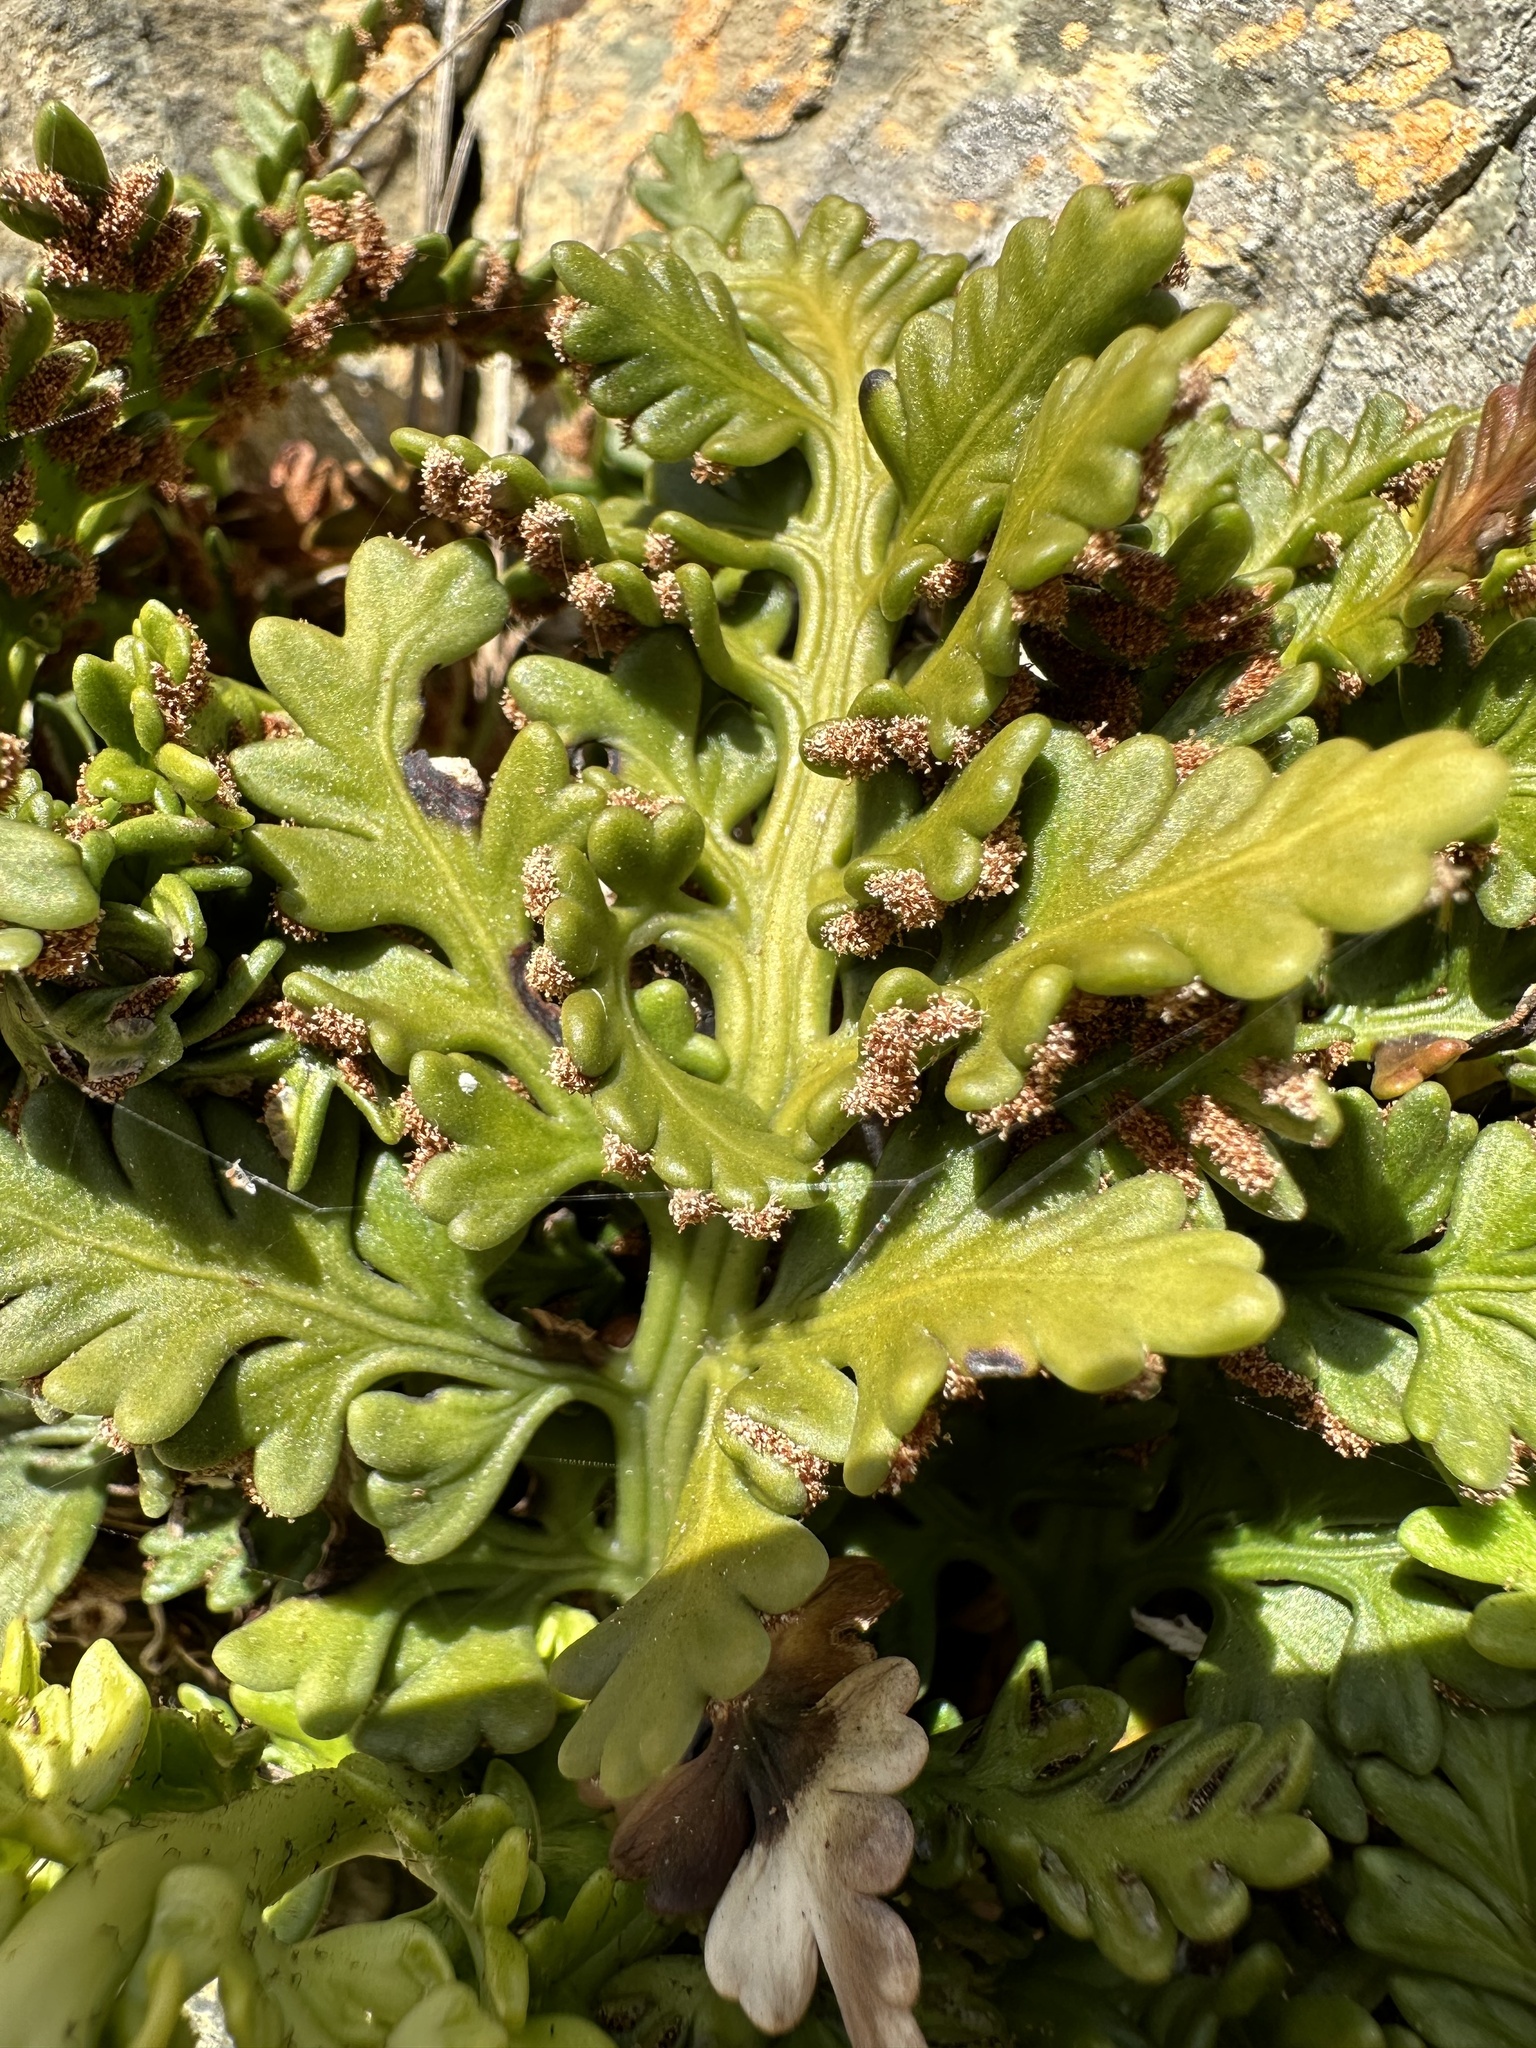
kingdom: Plantae
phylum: Tracheophyta
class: Polypodiopsida
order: Polypodiales
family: Aspleniaceae
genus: Asplenium
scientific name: Asplenium appendiculatum
